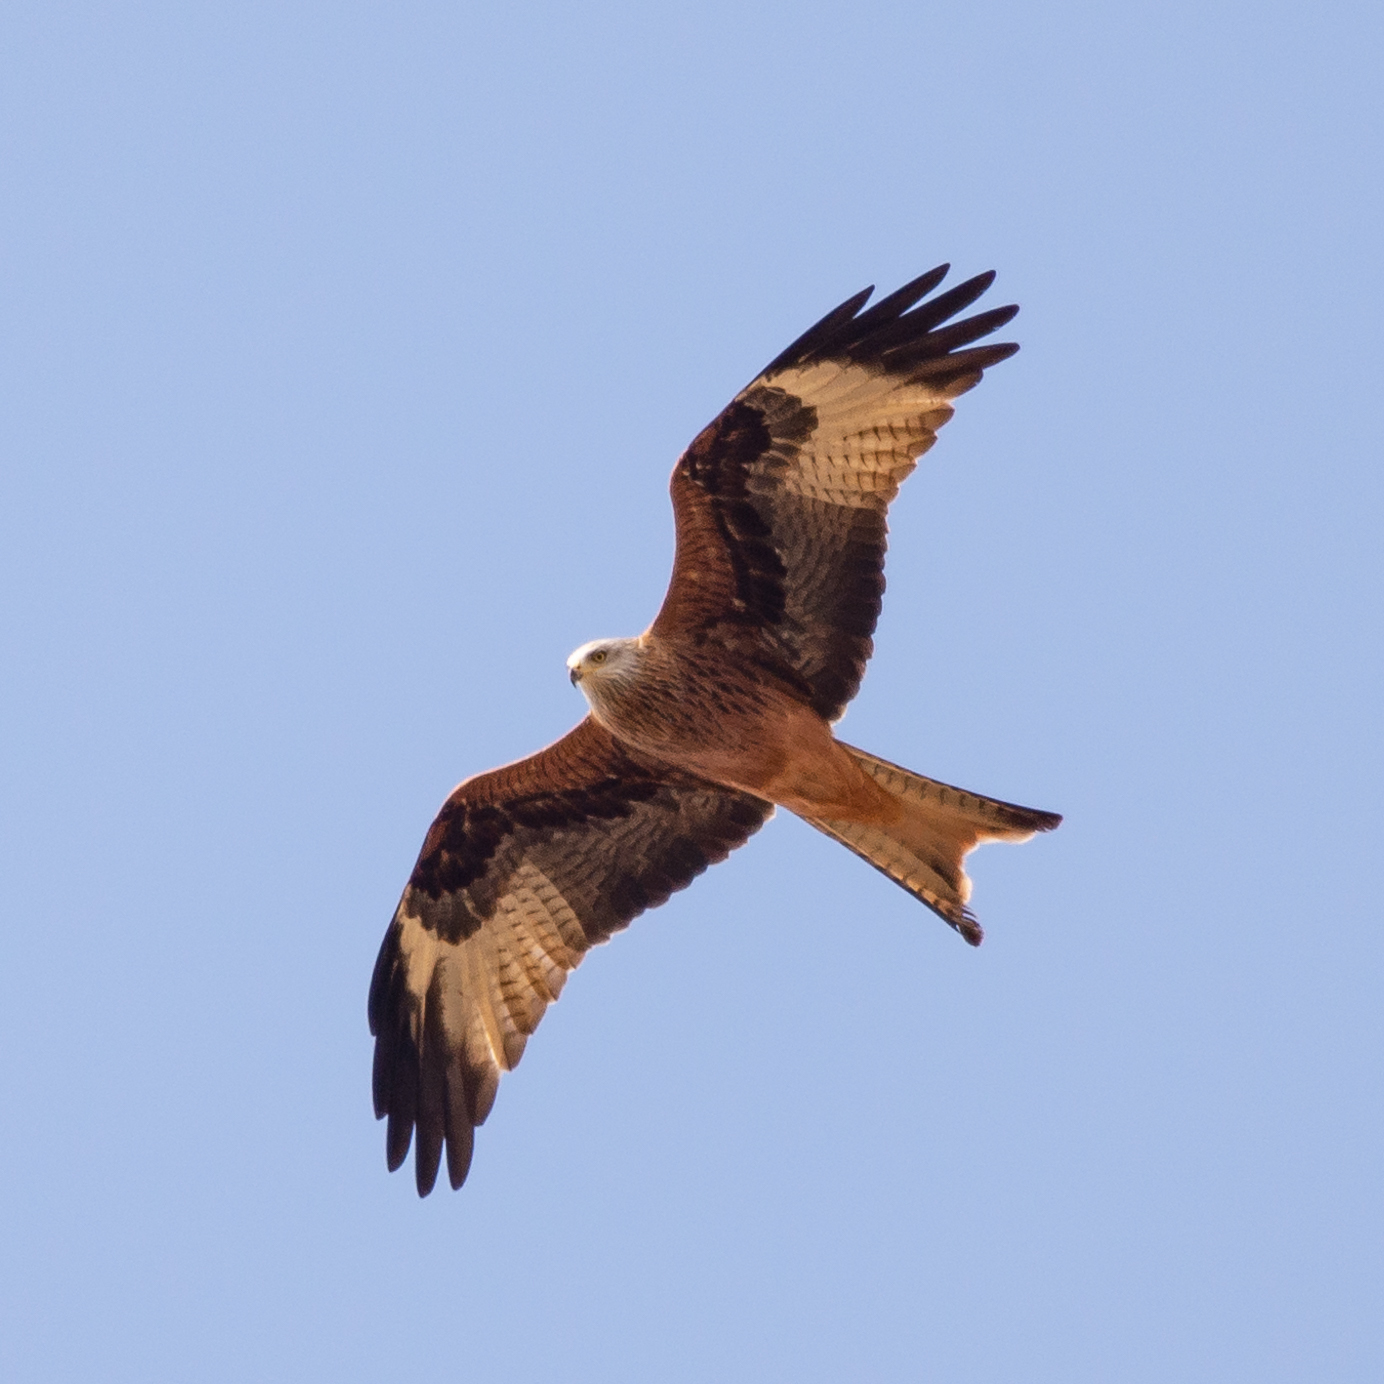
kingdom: Animalia
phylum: Chordata
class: Aves
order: Accipitriformes
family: Accipitridae
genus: Milvus
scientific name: Milvus milvus
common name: Red kite
